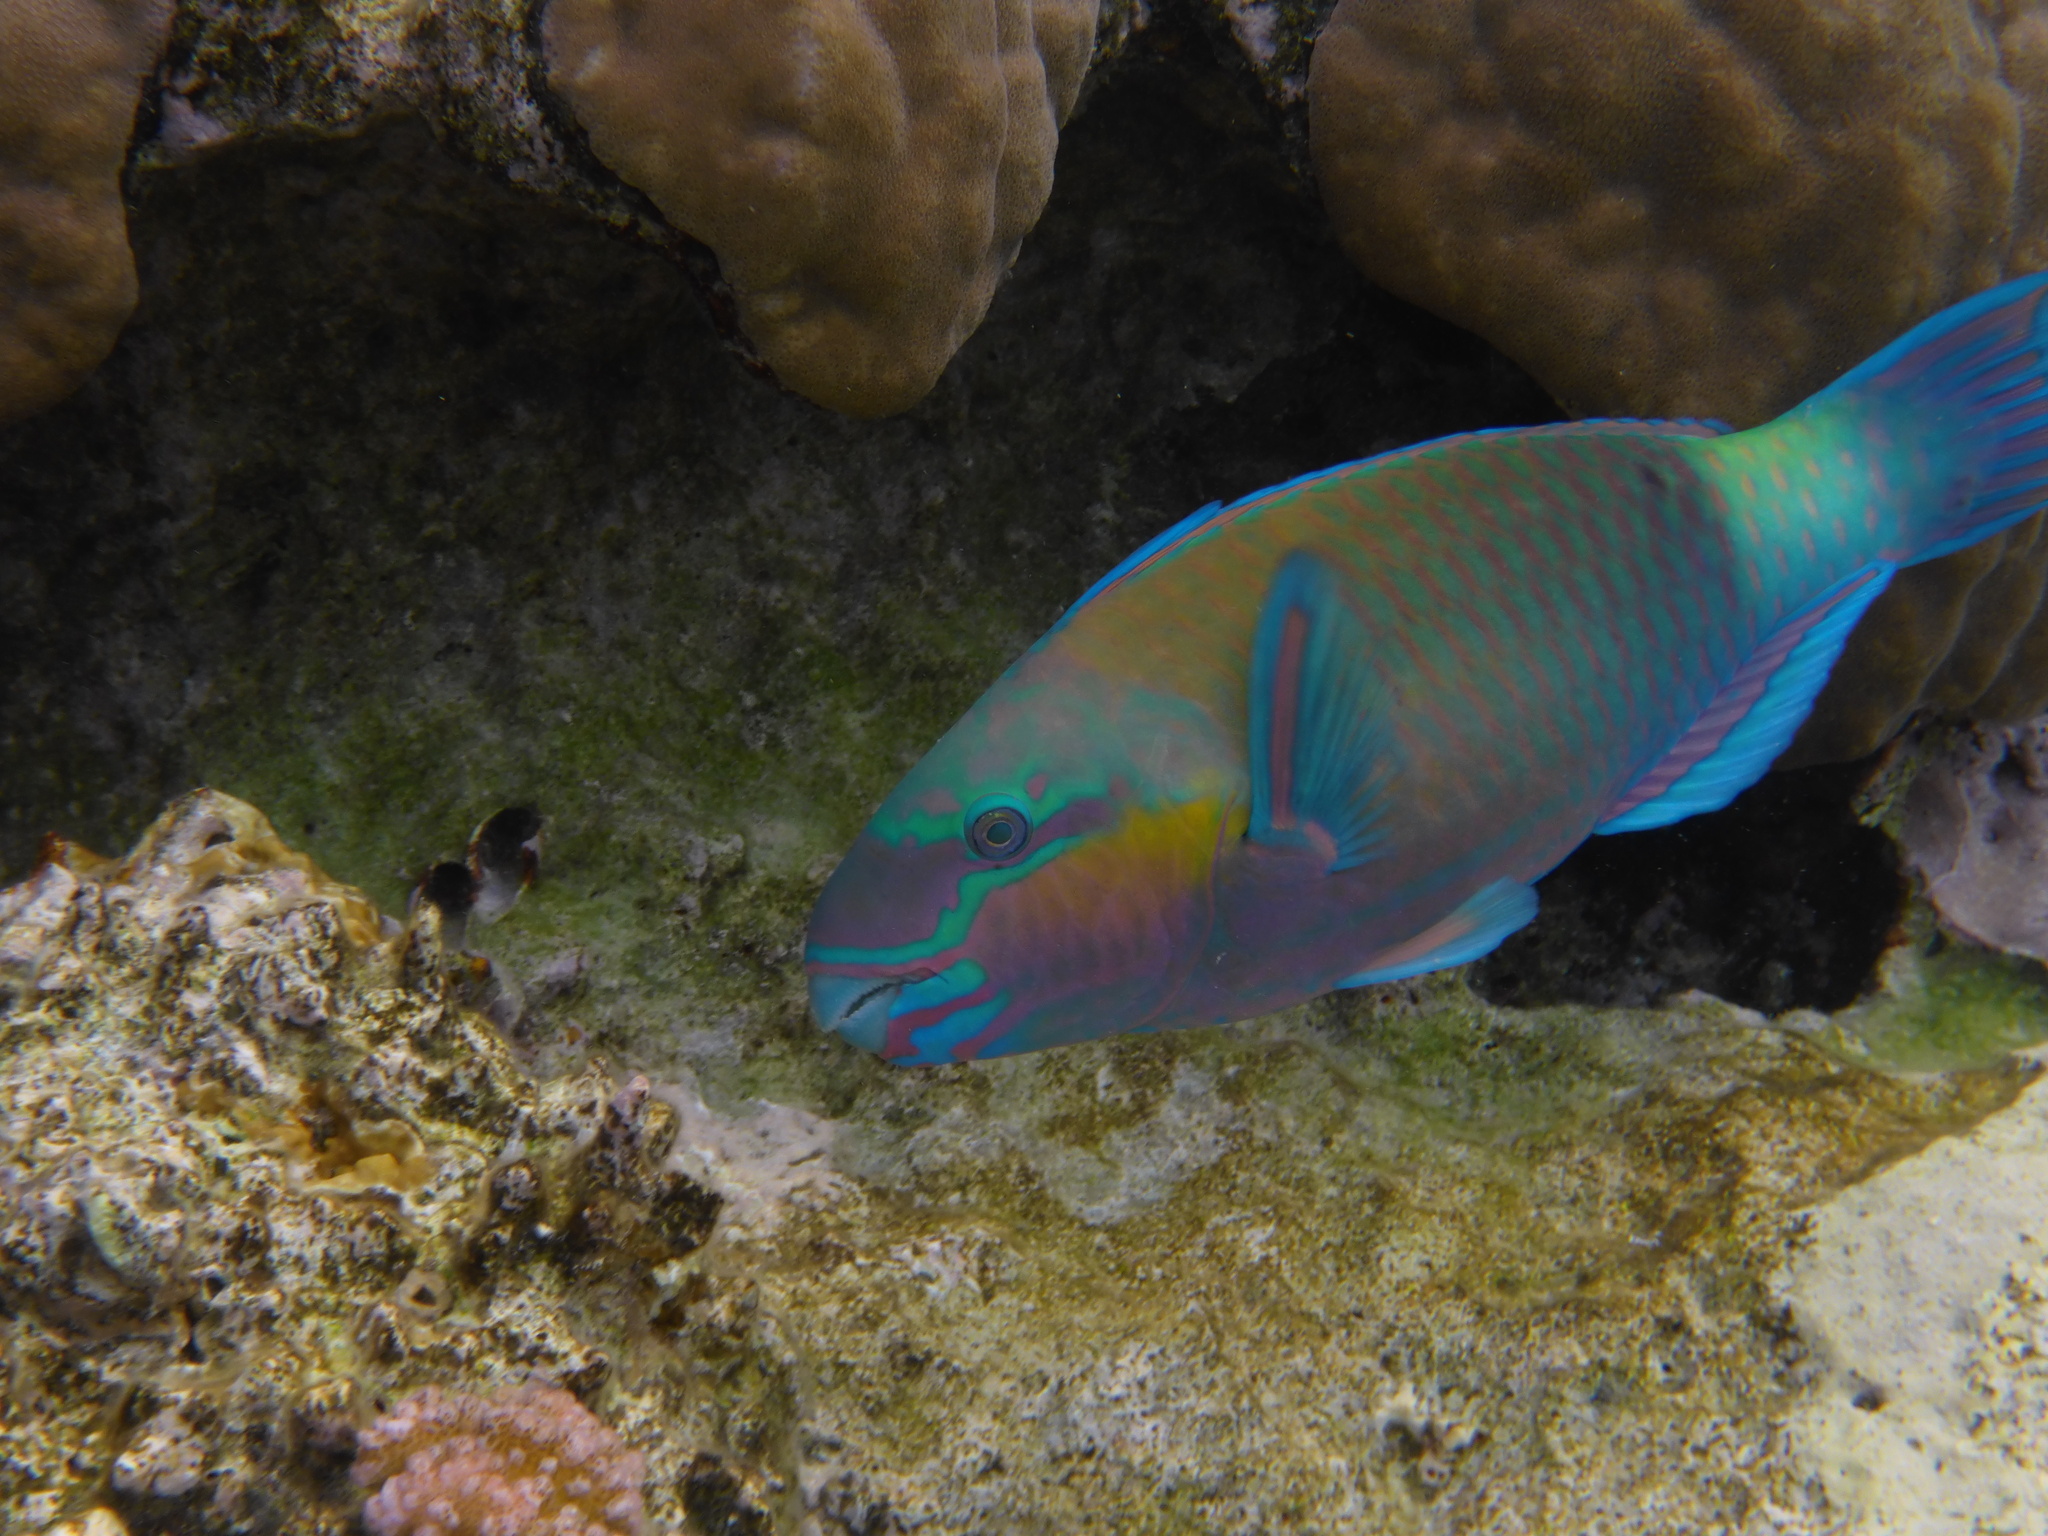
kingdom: Animalia
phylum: Chordata
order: Perciformes
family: Scaridae
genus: Chlorurus
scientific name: Chlorurus sordidus
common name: Bullethead parrotfish
